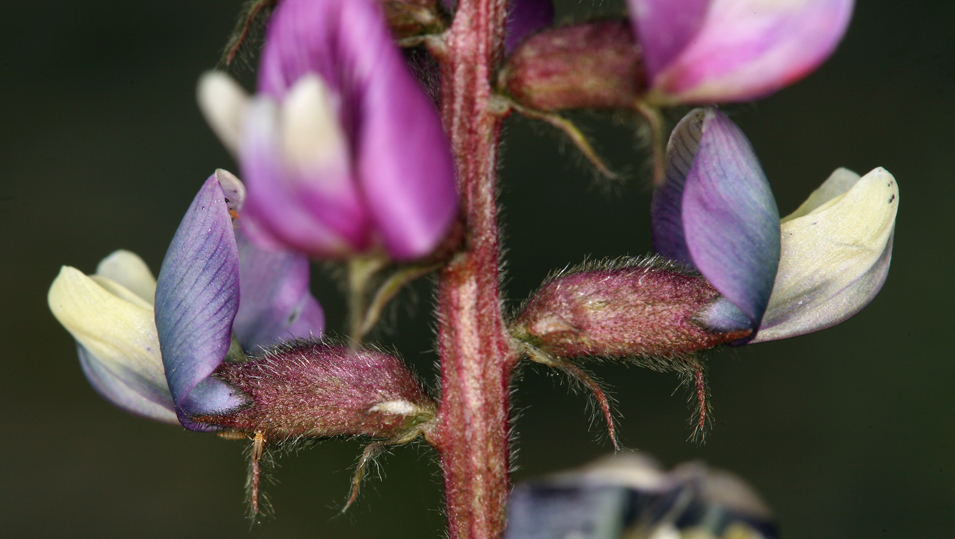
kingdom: Plantae
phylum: Tracheophyta
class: Magnoliopsida
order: Fabales
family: Fabaceae
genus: Astragalus
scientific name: Astragalus minthorniae
